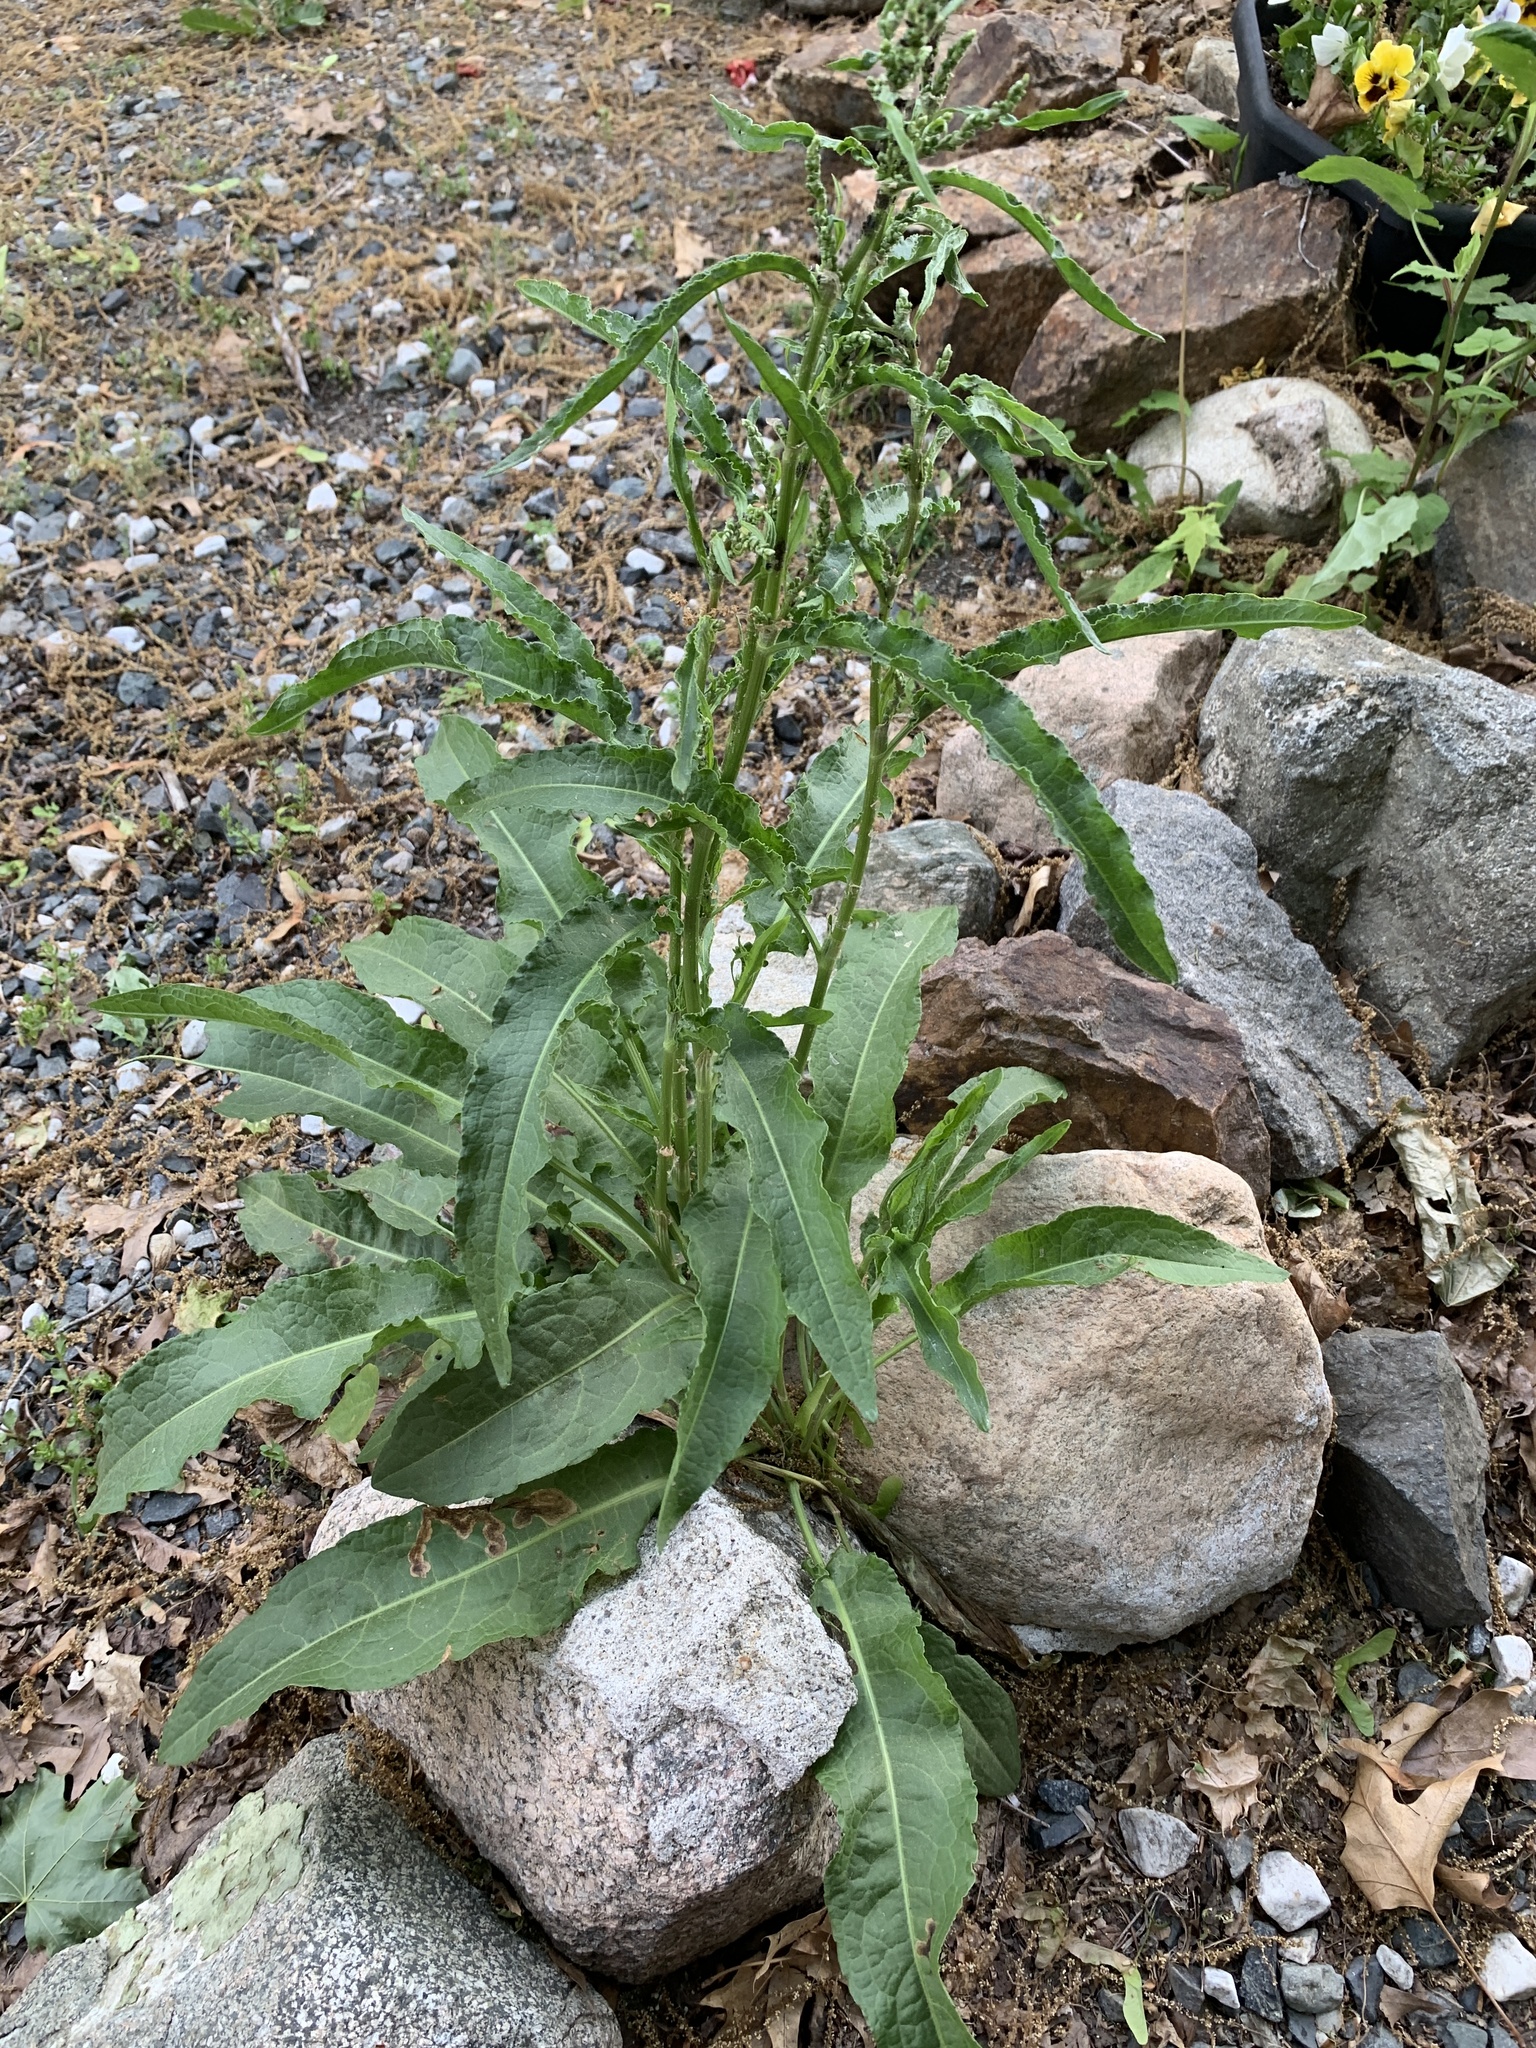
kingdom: Plantae
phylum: Tracheophyta
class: Magnoliopsida
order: Caryophyllales
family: Polygonaceae
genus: Rumex
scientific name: Rumex crispus
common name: Curled dock
